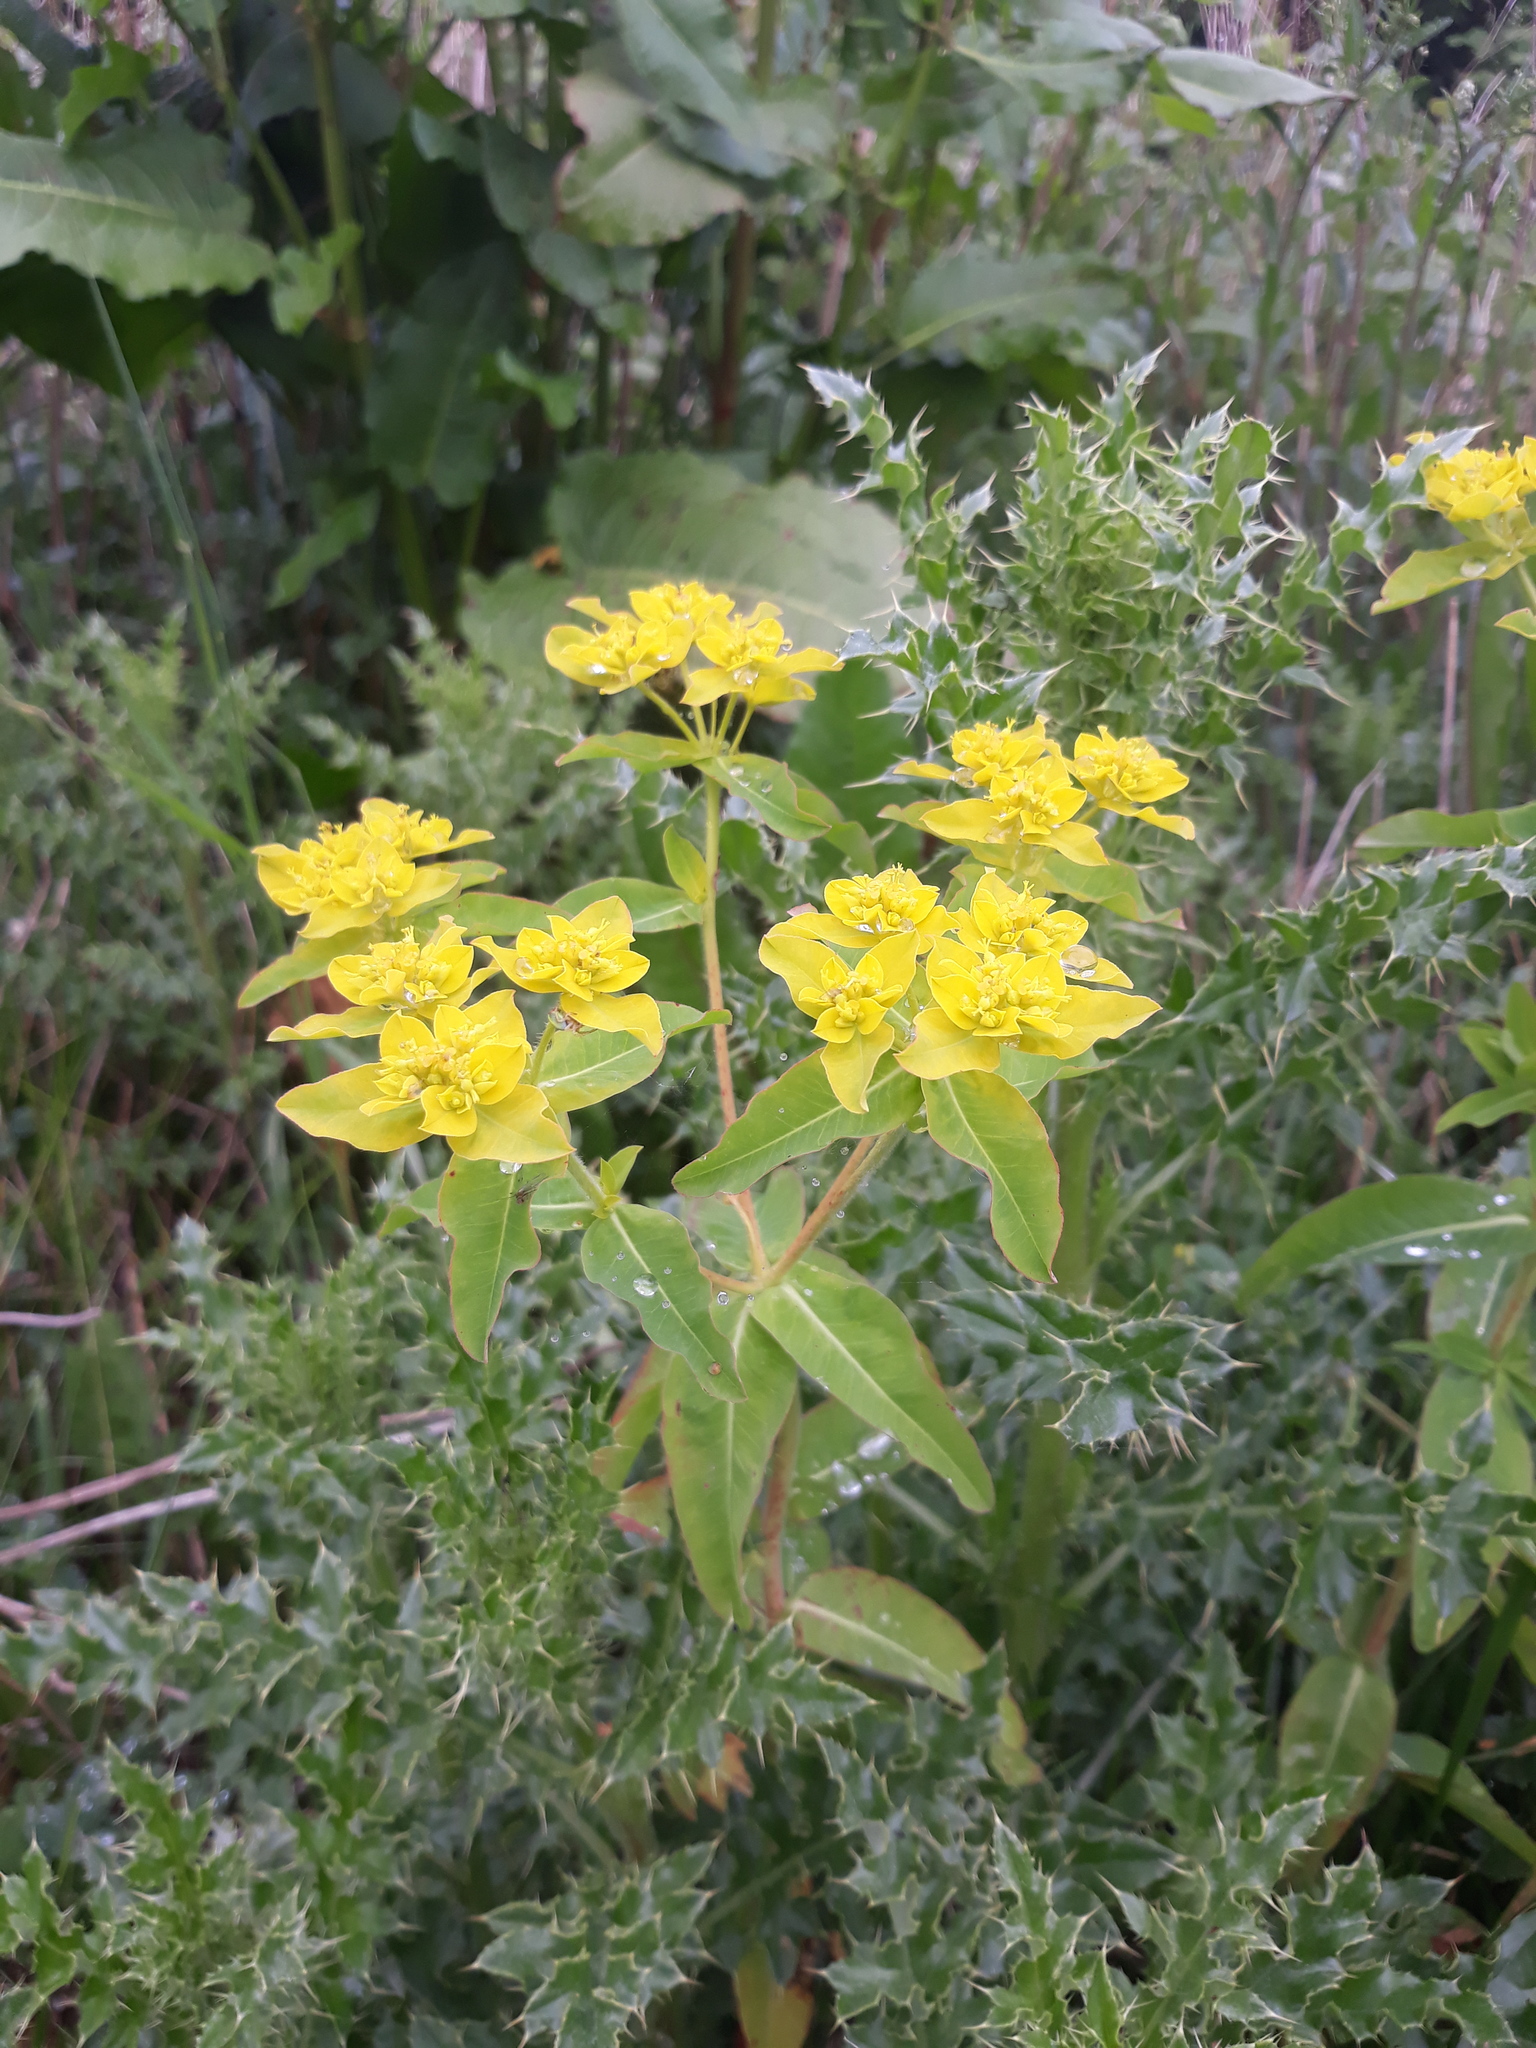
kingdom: Plantae
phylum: Tracheophyta
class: Magnoliopsida
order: Malpighiales
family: Euphorbiaceae
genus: Euphorbia
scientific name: Euphorbia oblongata
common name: Balkan spurge
